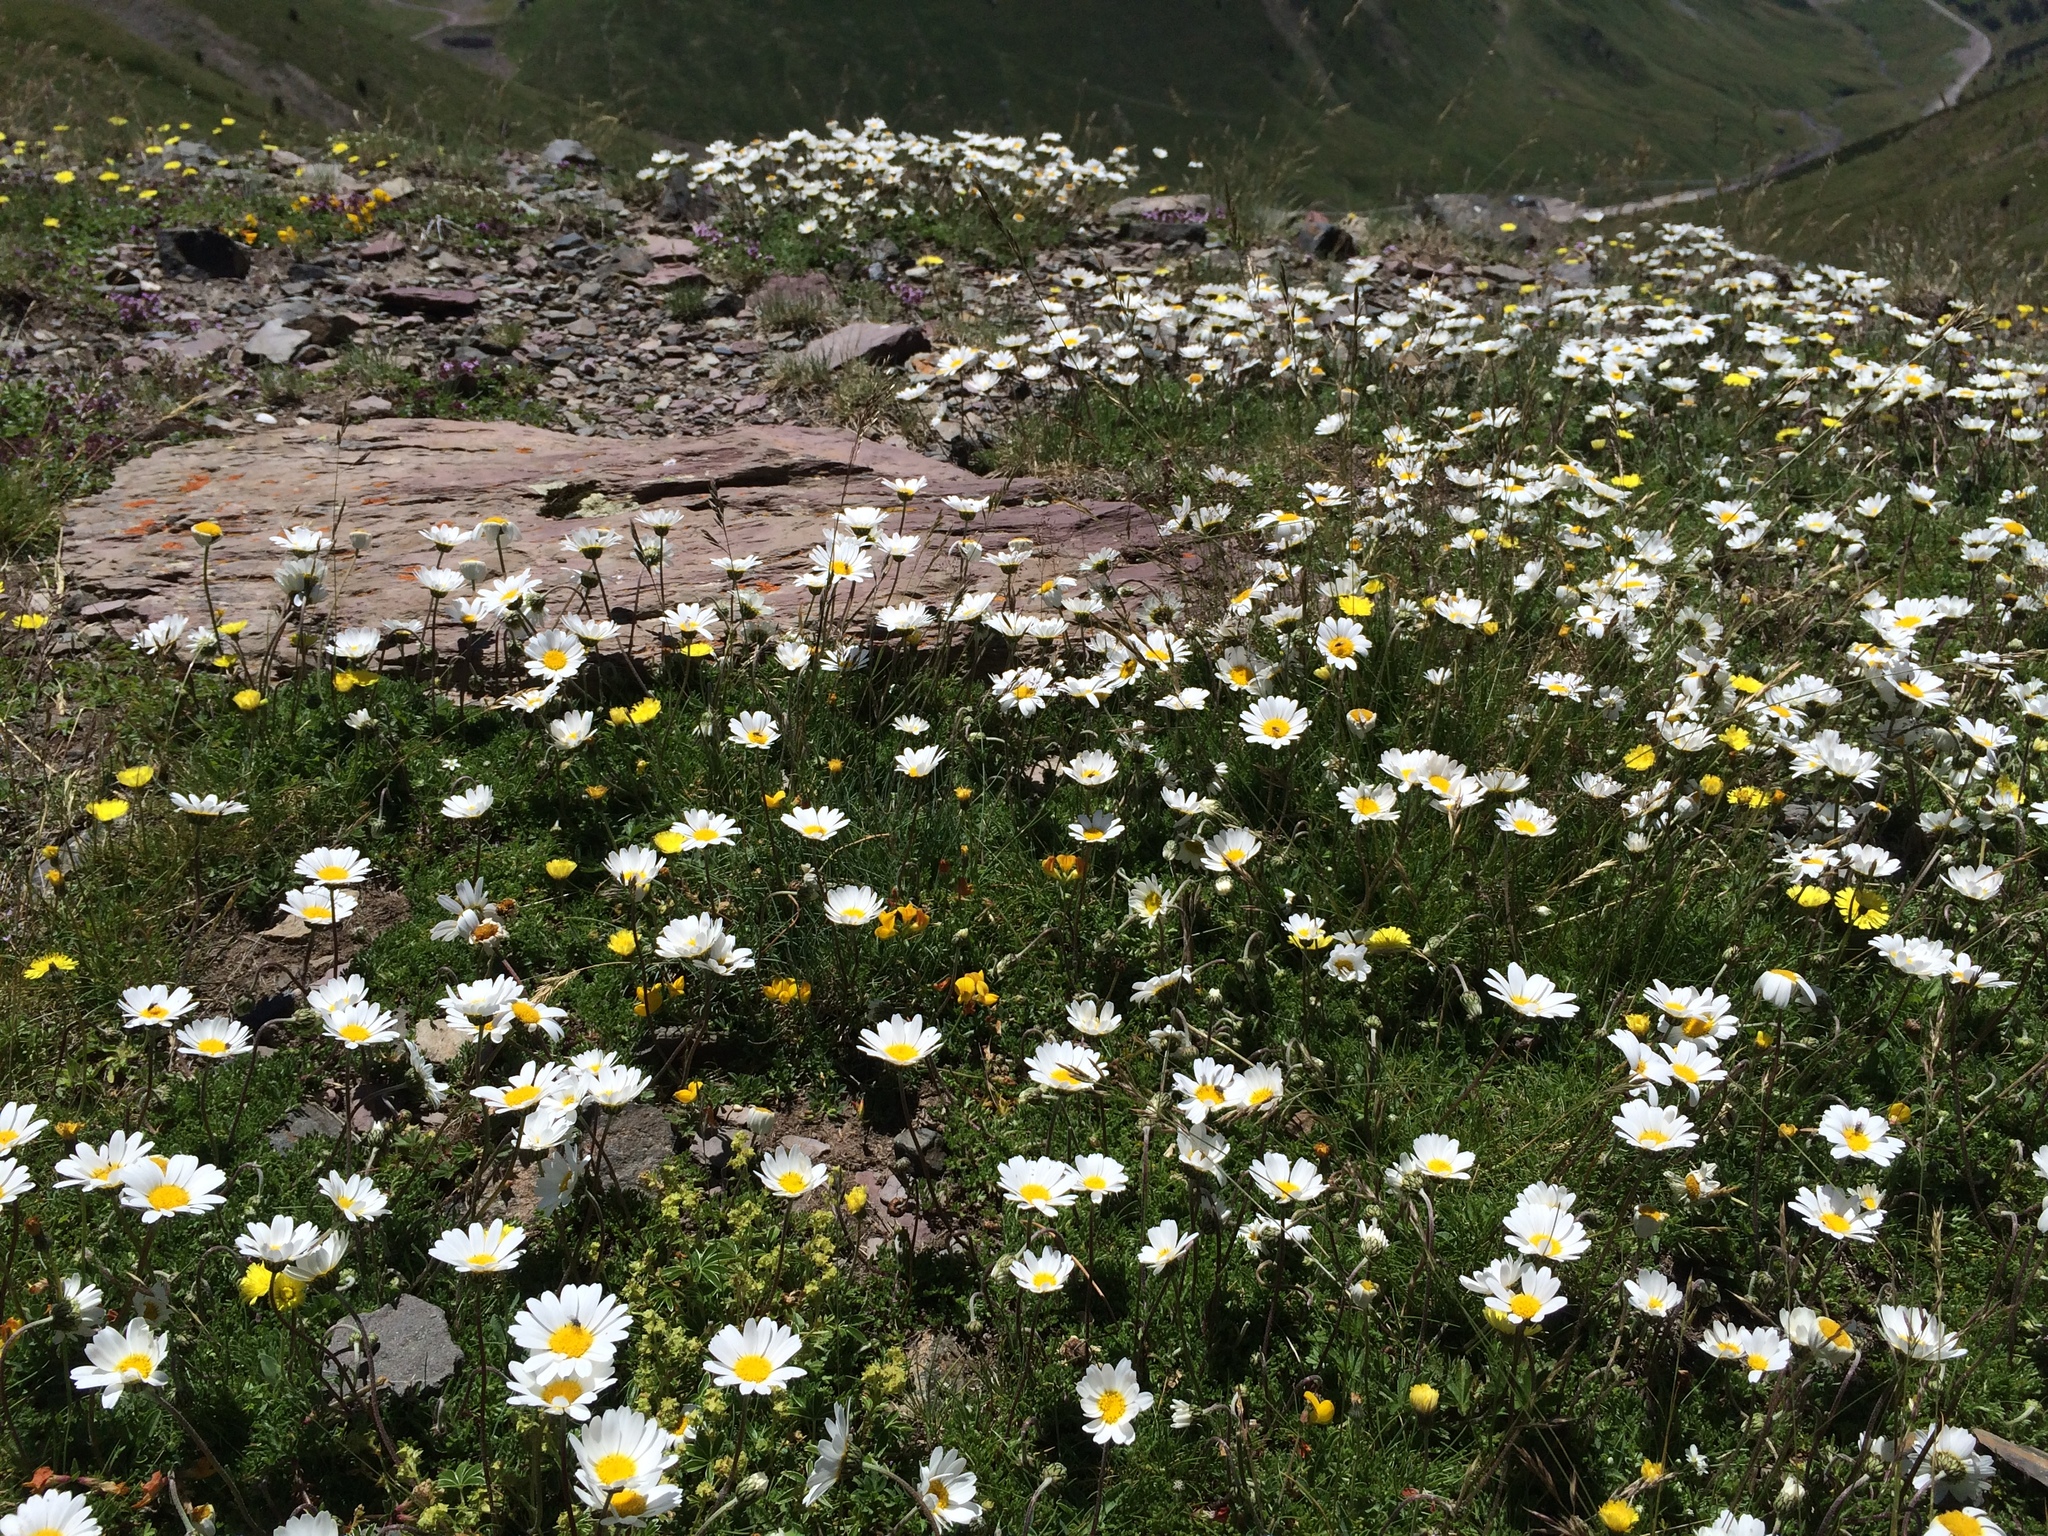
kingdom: Plantae
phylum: Tracheophyta
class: Magnoliopsida
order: Asterales
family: Asteraceae
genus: Leucanthemopsis
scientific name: Leucanthemopsis alpina
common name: Alpine moon daisy
